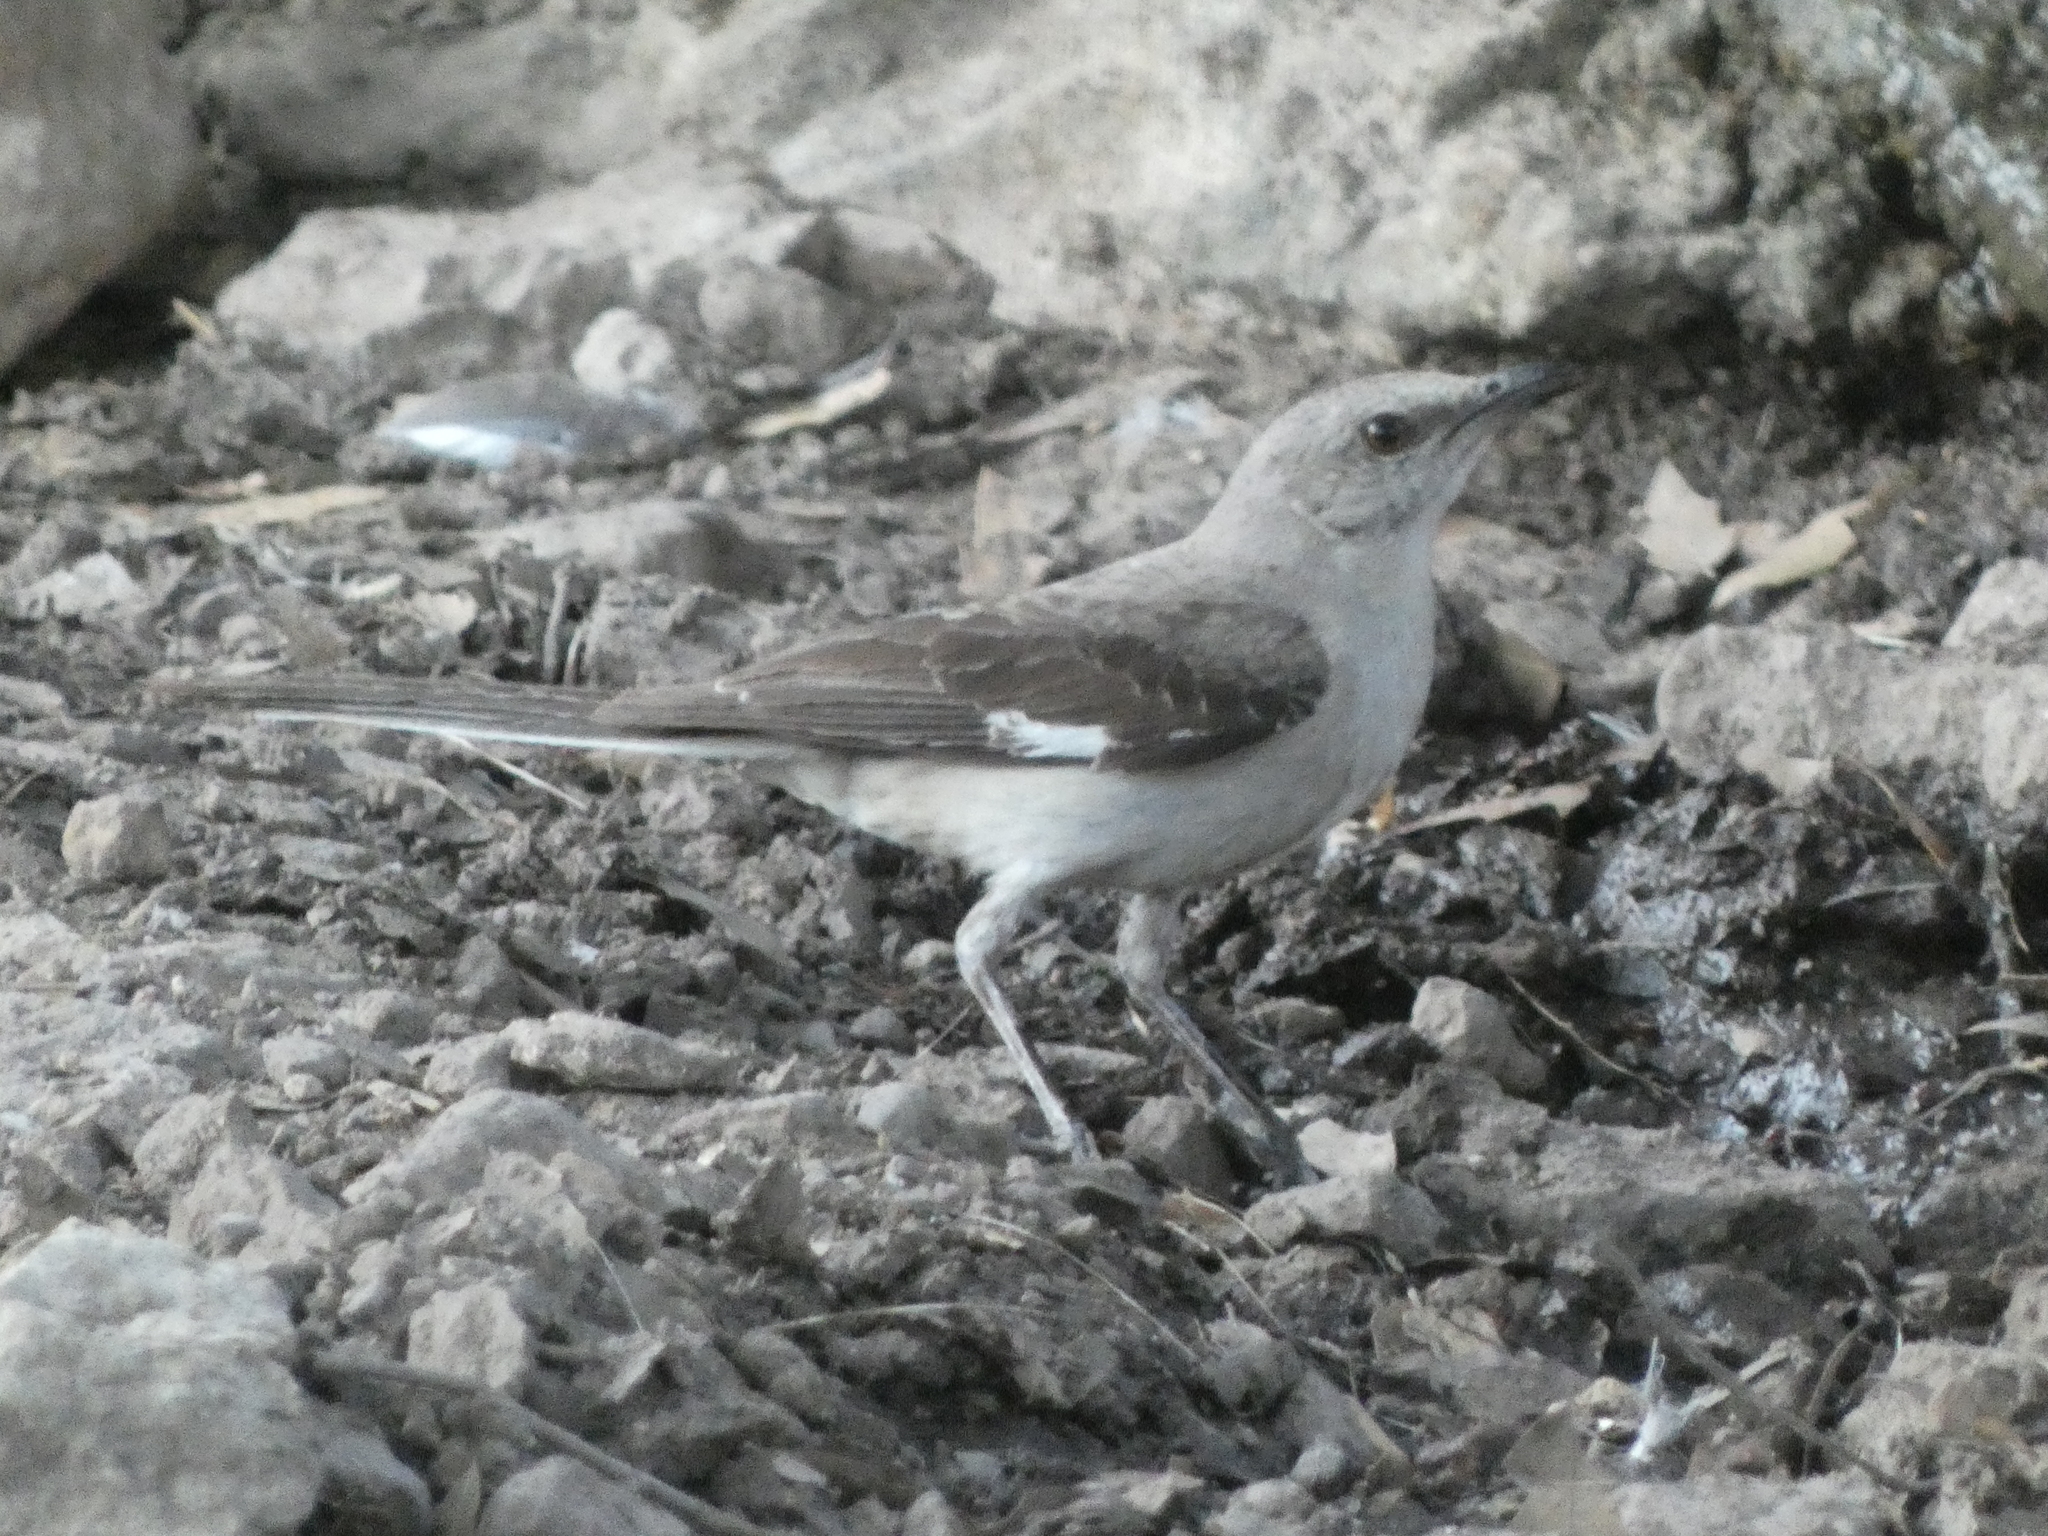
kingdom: Animalia
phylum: Chordata
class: Aves
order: Passeriformes
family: Mimidae
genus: Mimus
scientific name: Mimus polyglottos
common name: Northern mockingbird
